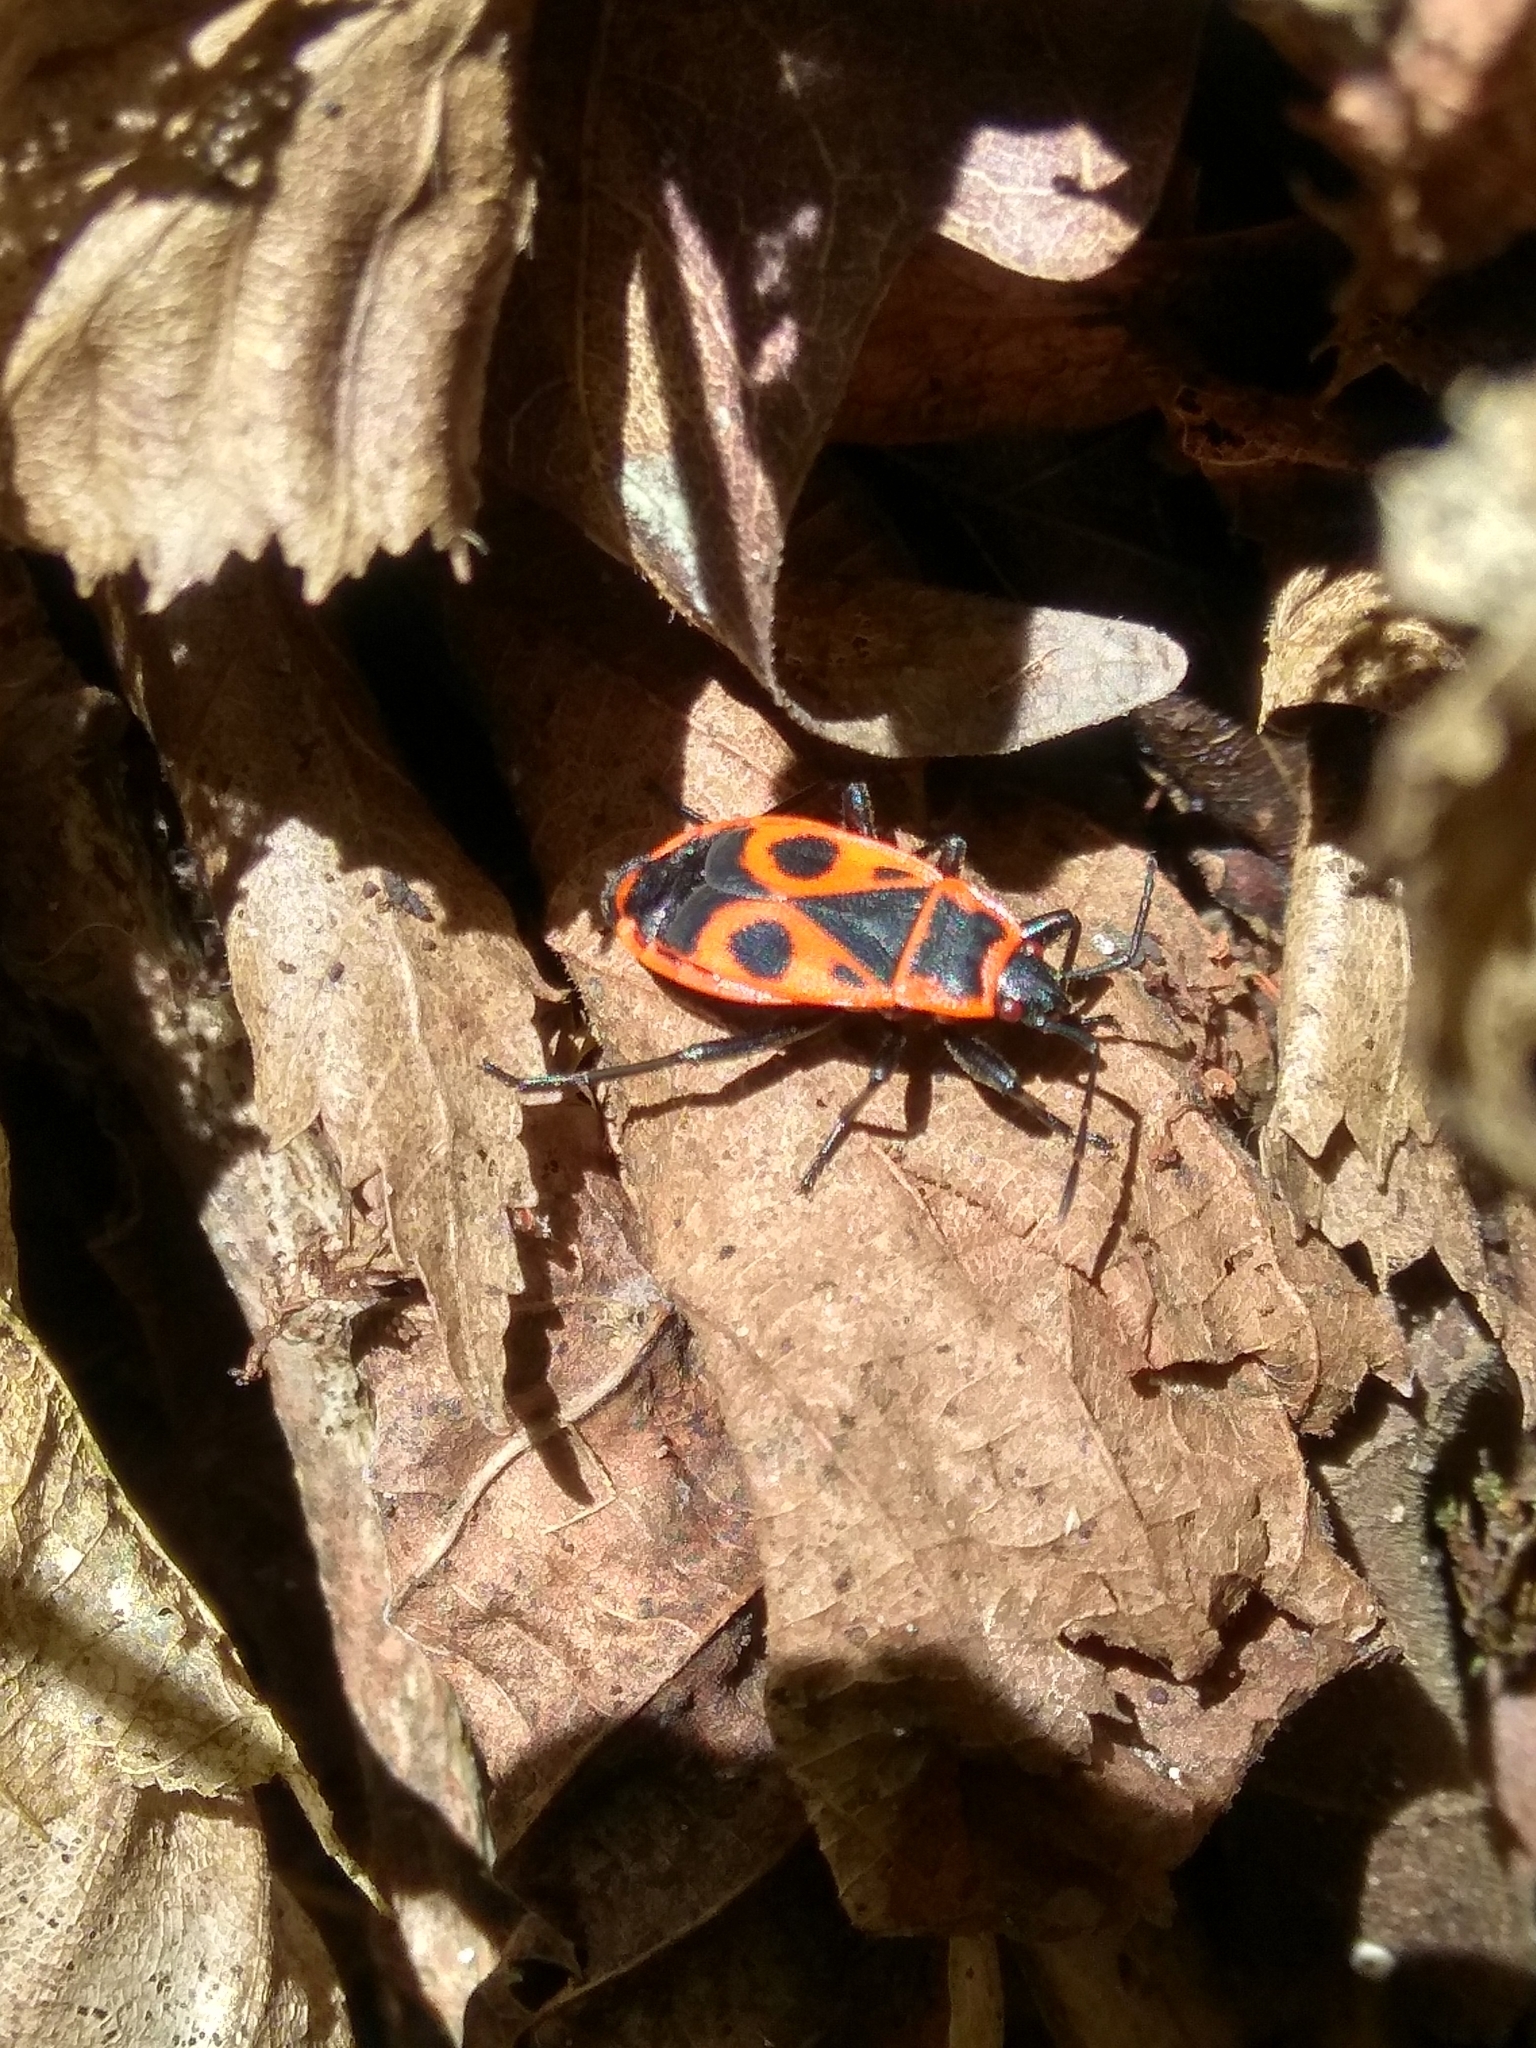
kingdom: Animalia
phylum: Arthropoda
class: Insecta
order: Hemiptera
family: Pyrrhocoridae
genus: Pyrrhocoris
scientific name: Pyrrhocoris apterus
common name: Firebug
